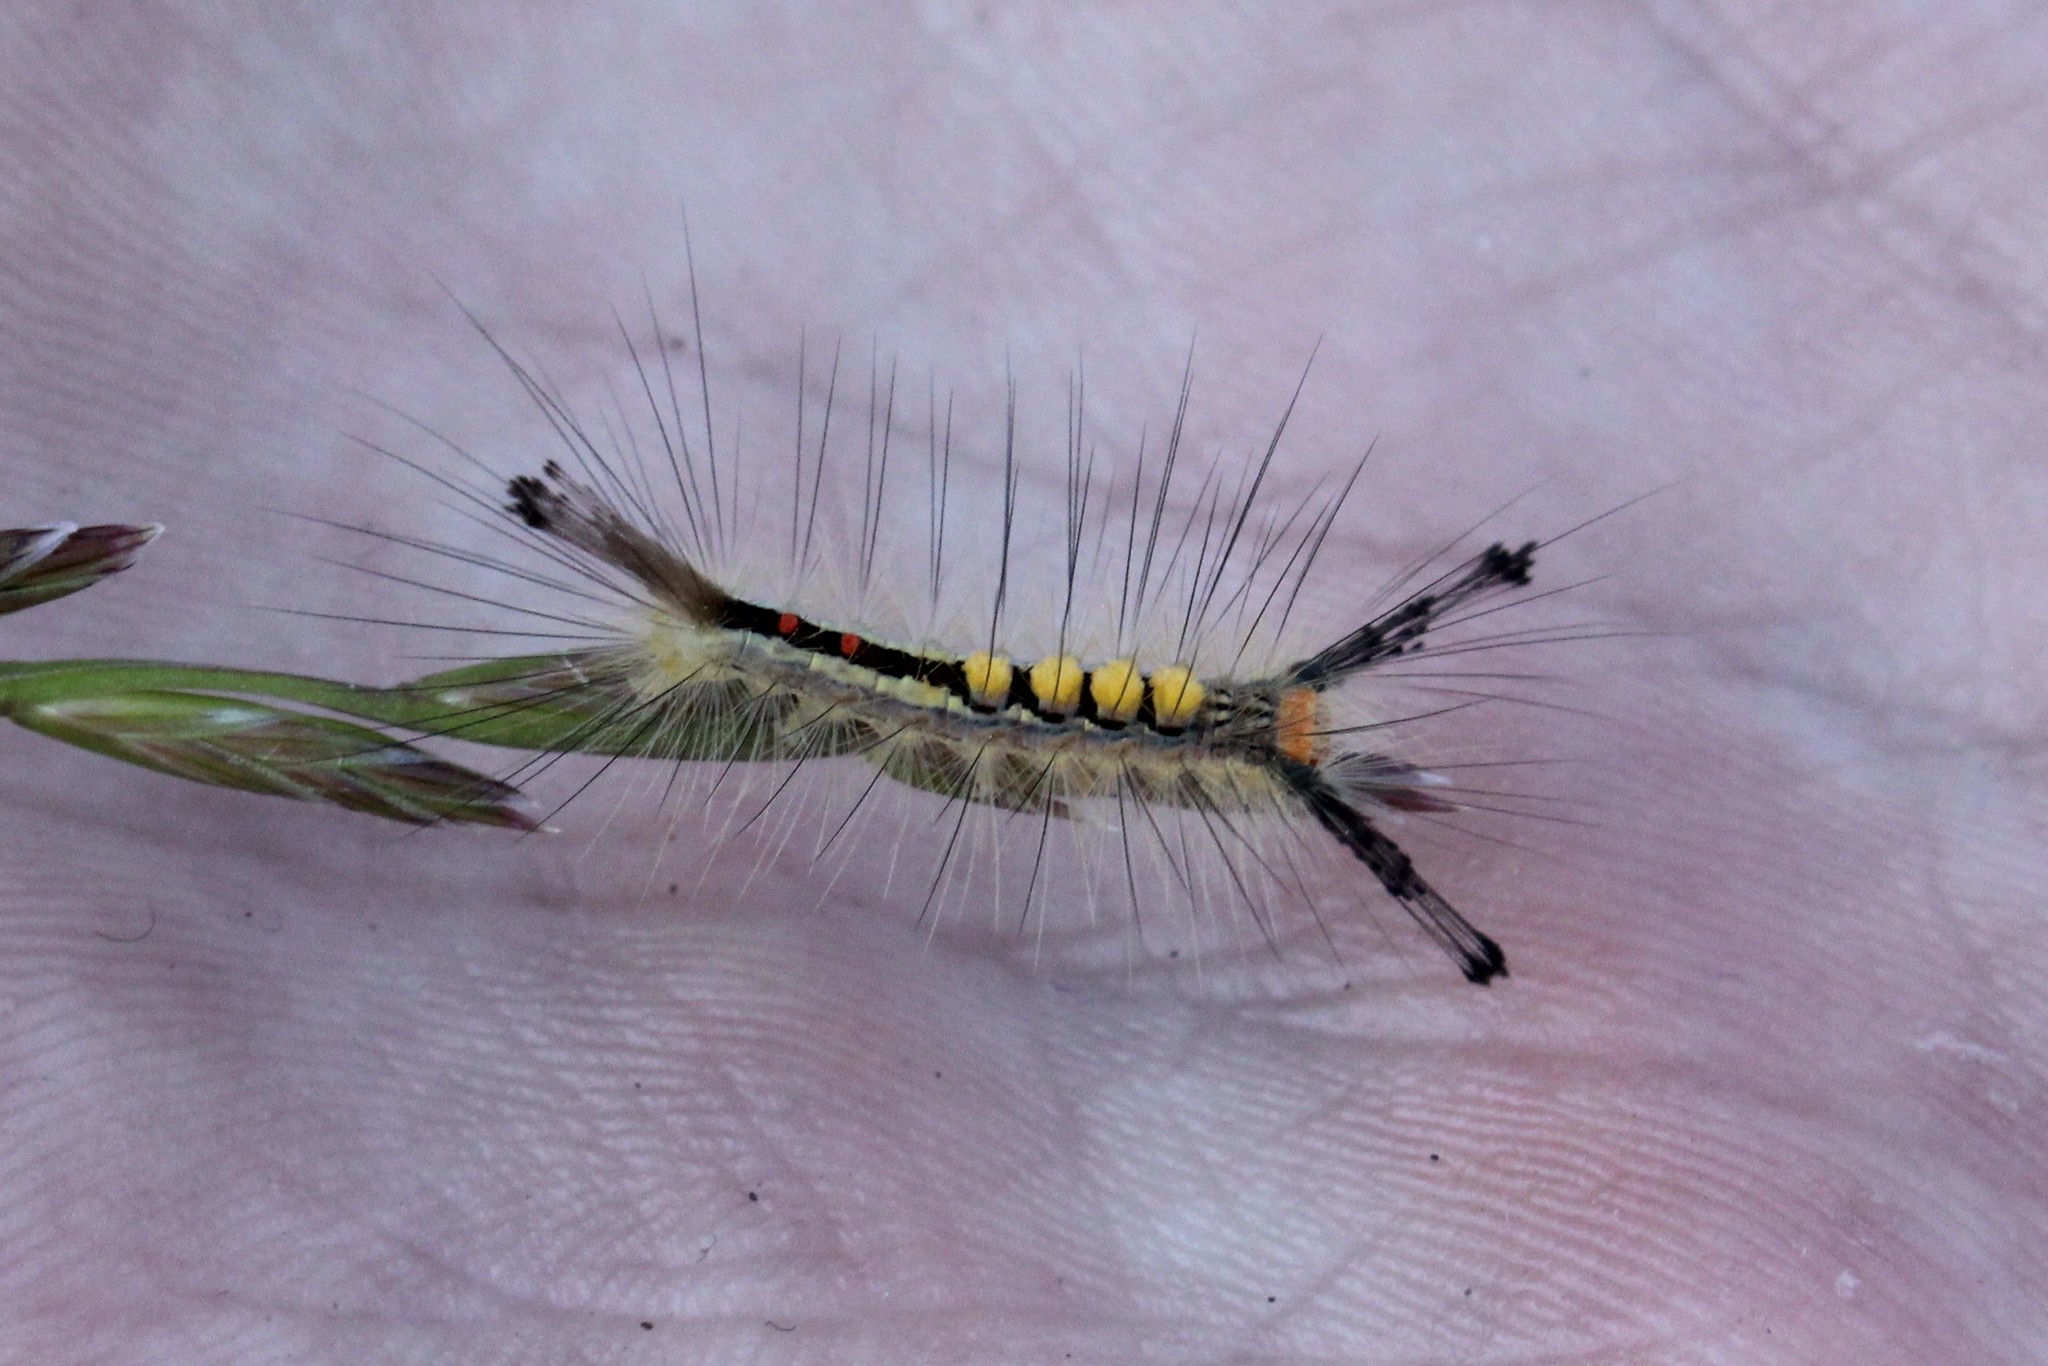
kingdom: Animalia
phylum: Arthropoda
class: Insecta
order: Lepidoptera
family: Erebidae
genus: Orgyia
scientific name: Orgyia leucostigma
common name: White-marked tussock moth
